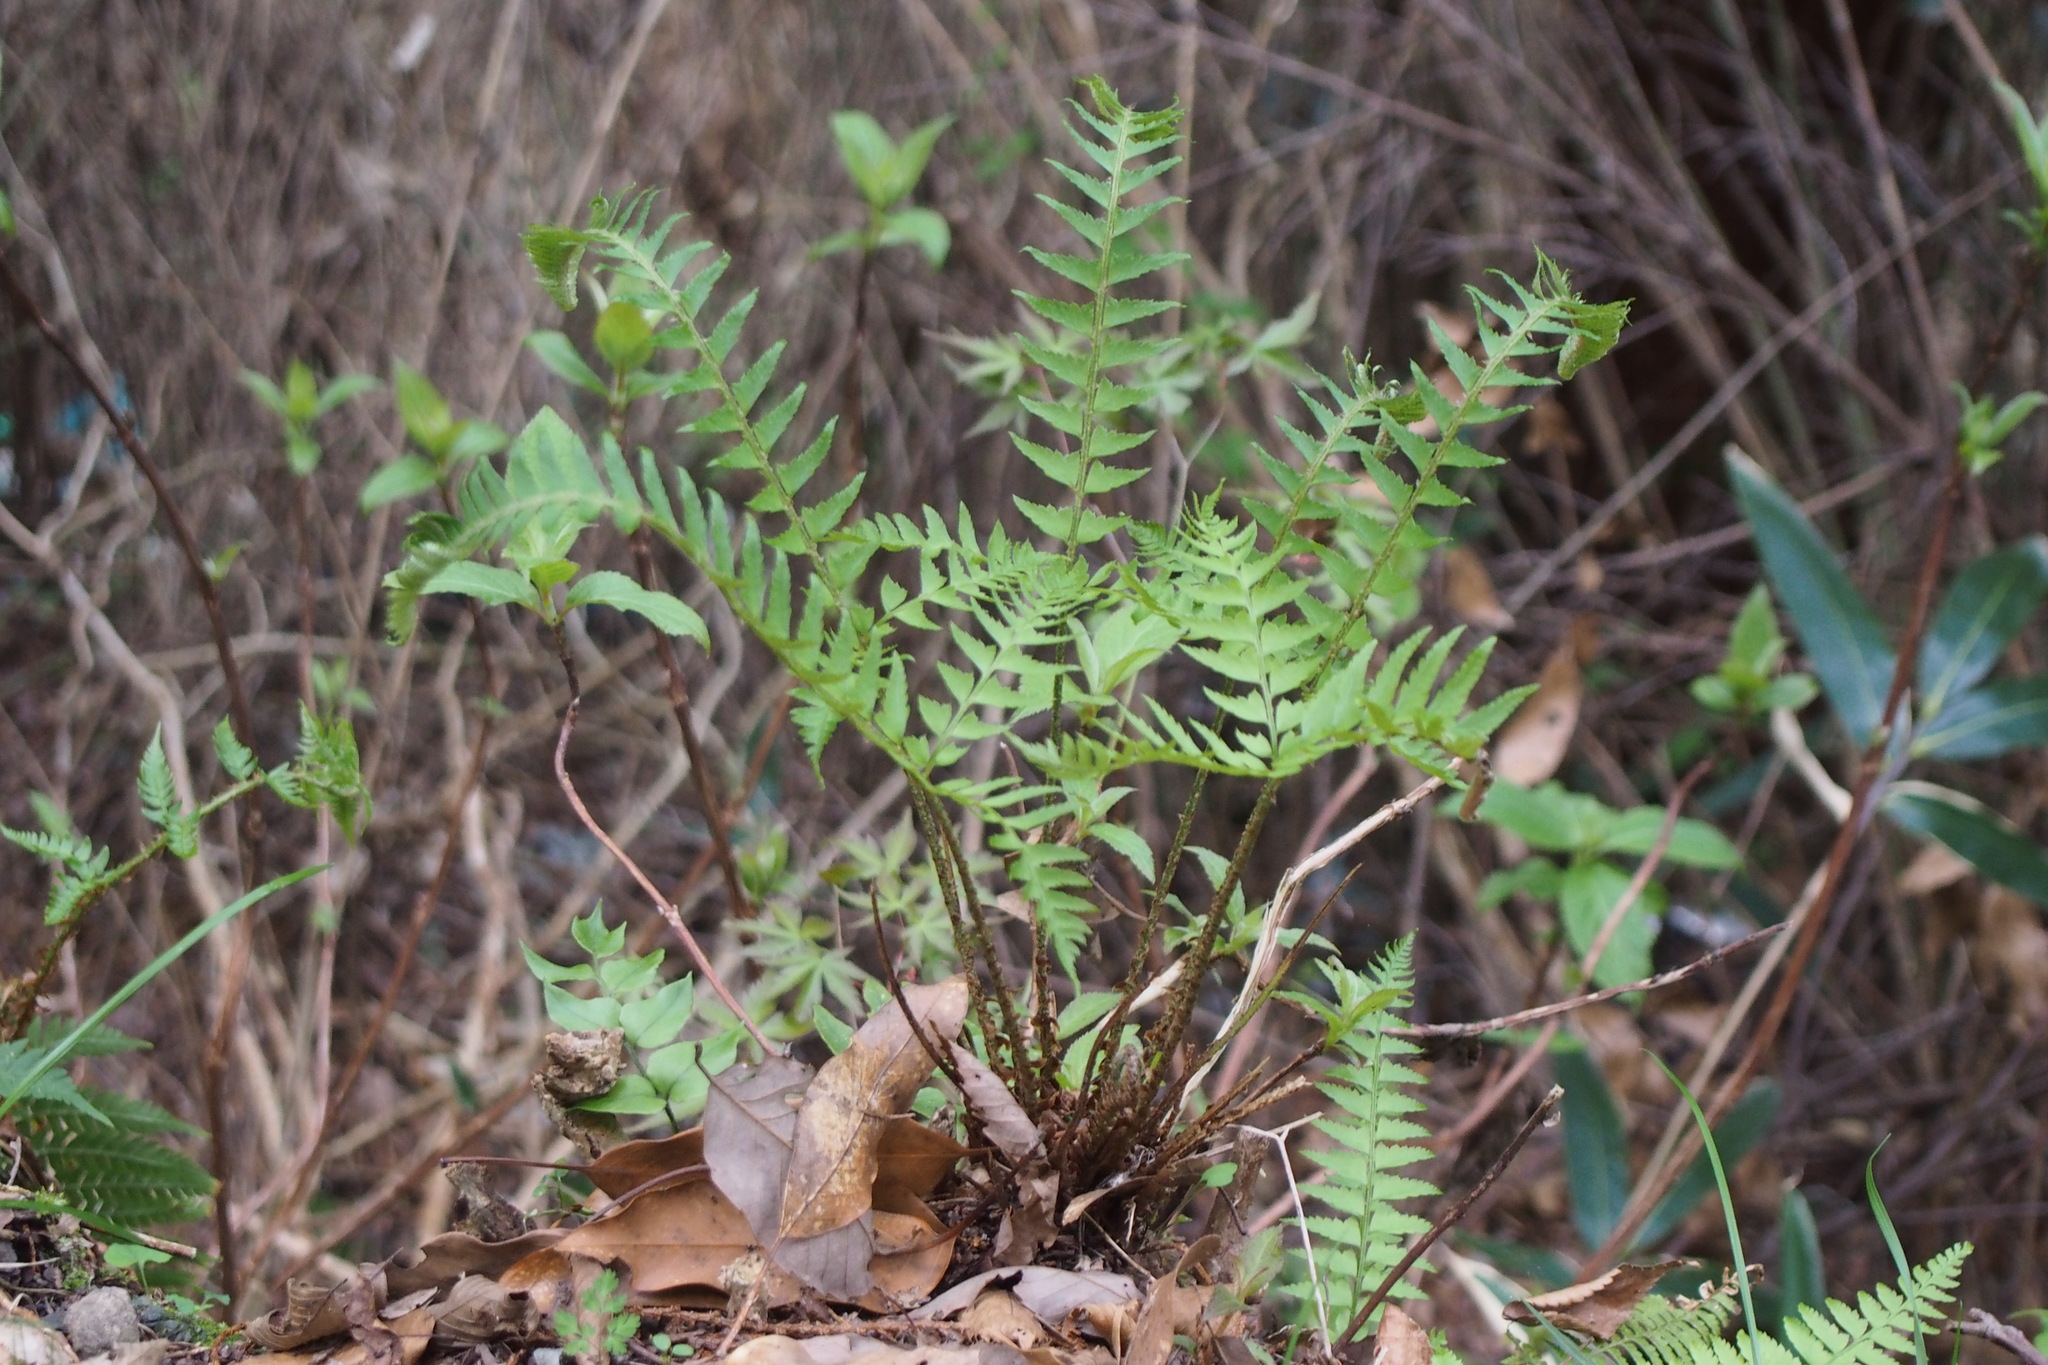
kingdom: Plantae
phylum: Tracheophyta
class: Polypodiopsida
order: Polypodiales
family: Dryopteridaceae
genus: Polystichum
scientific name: Polystichum tripteron
